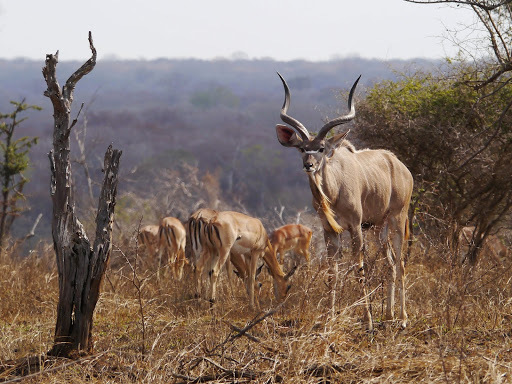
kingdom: Animalia
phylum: Chordata
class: Mammalia
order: Artiodactyla
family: Bovidae
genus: Tragelaphus
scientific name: Tragelaphus strepsiceros
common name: Greater kudu
